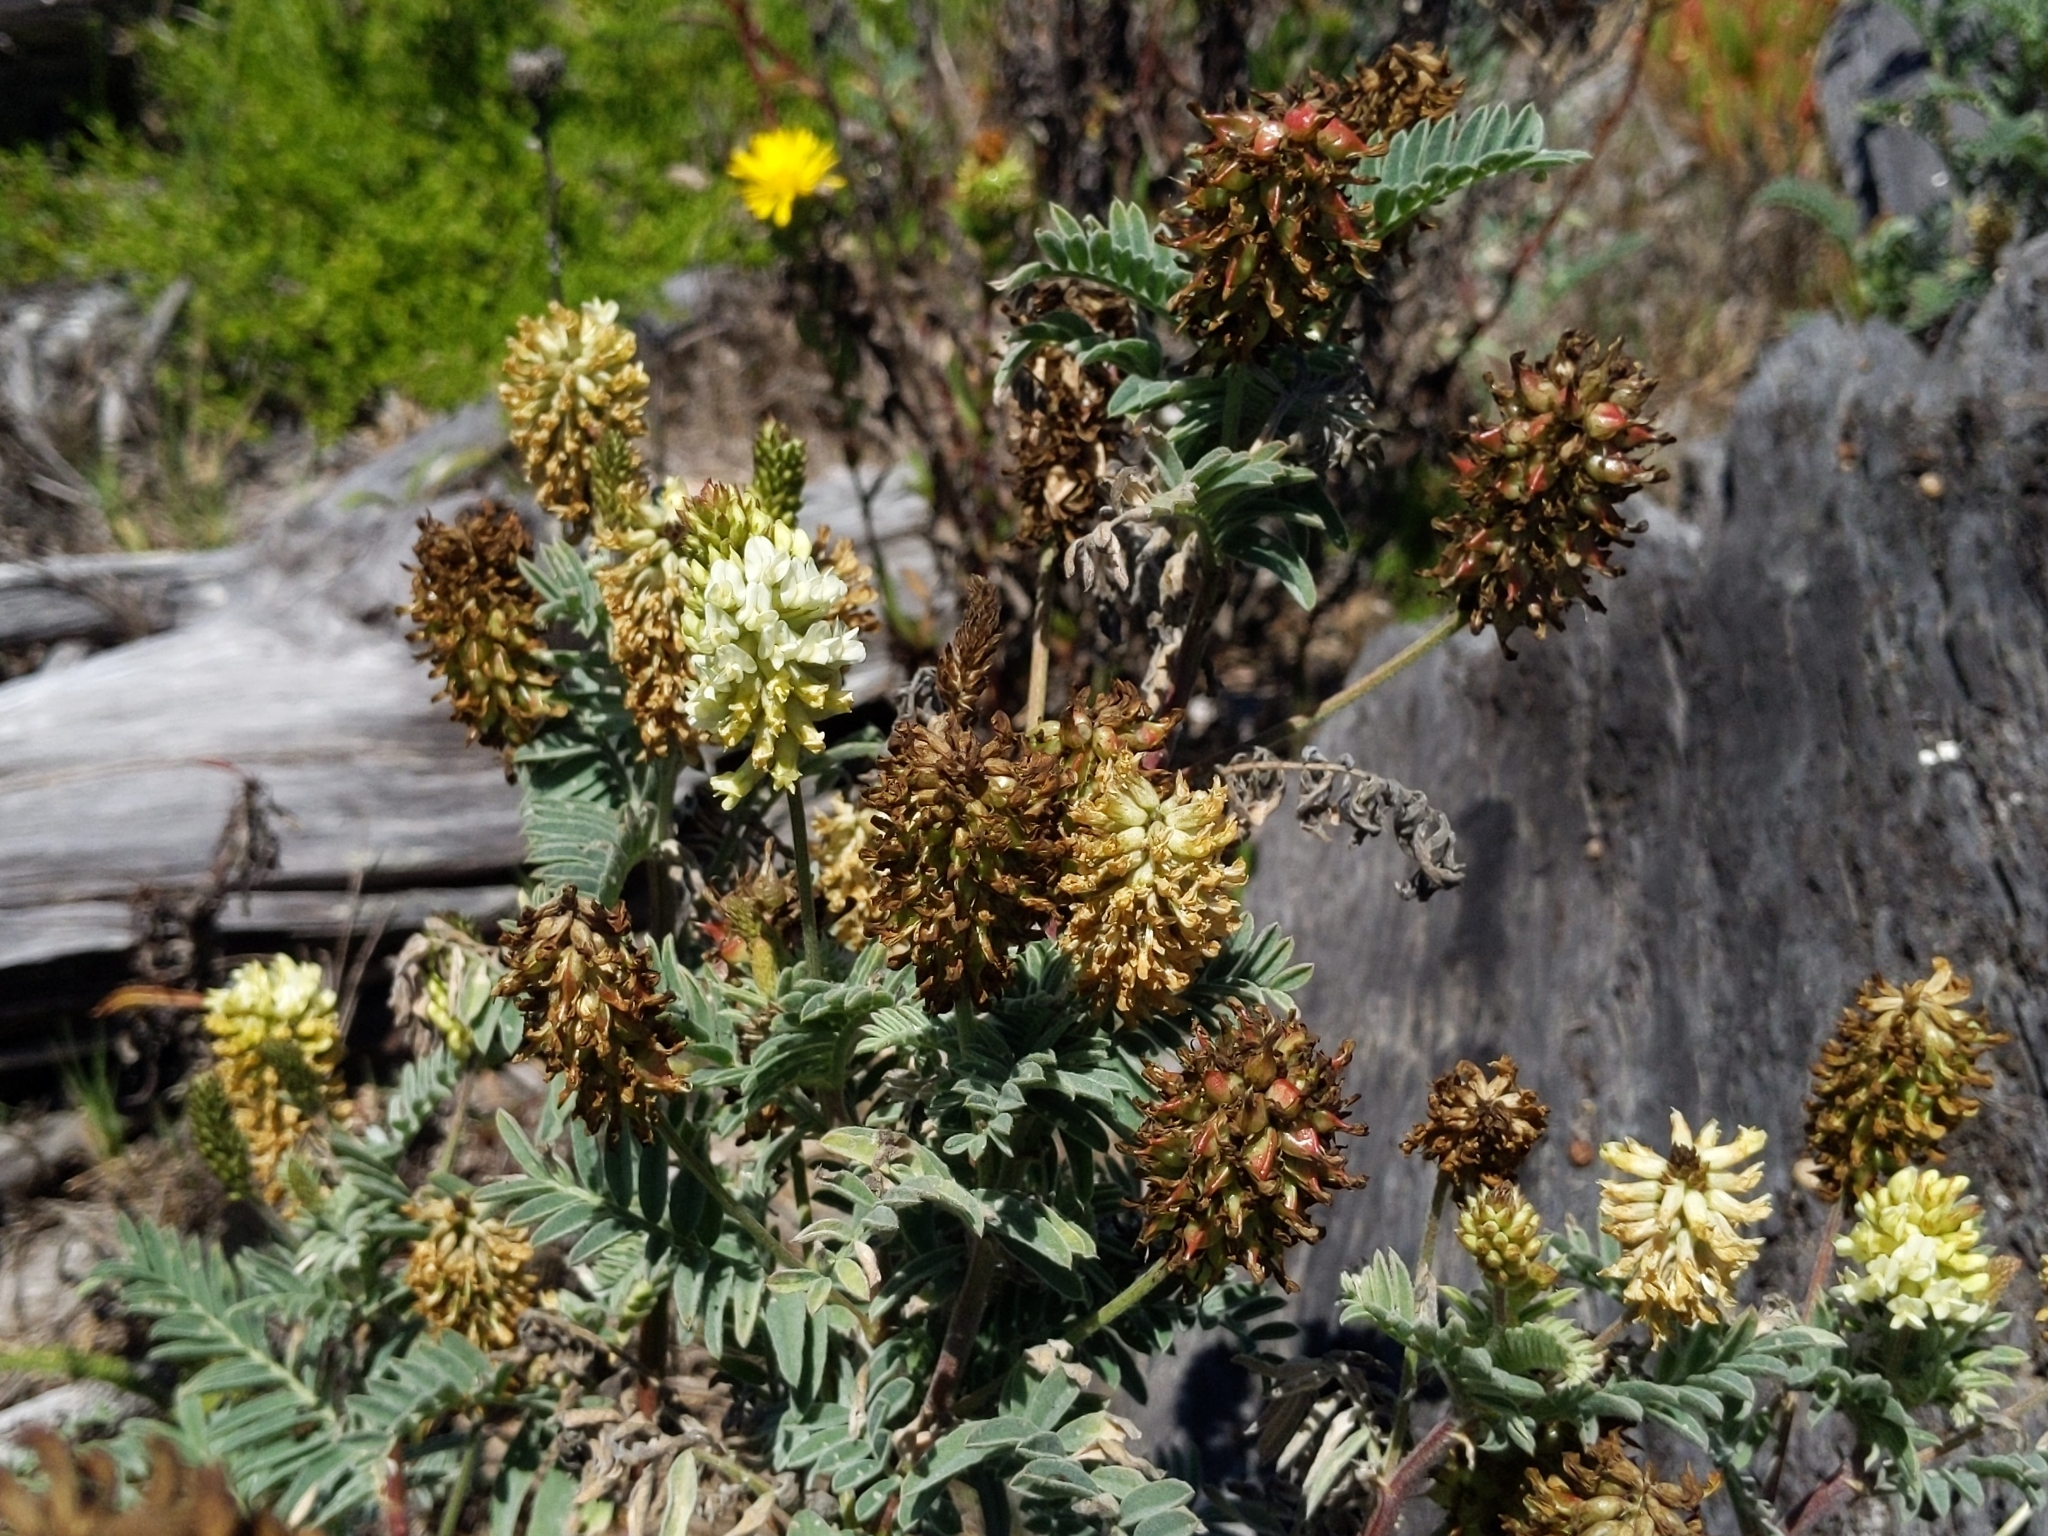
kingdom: Plantae
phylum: Tracheophyta
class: Magnoliopsida
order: Fabales
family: Fabaceae
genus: Astragalus
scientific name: Astragalus pycnostachyus
